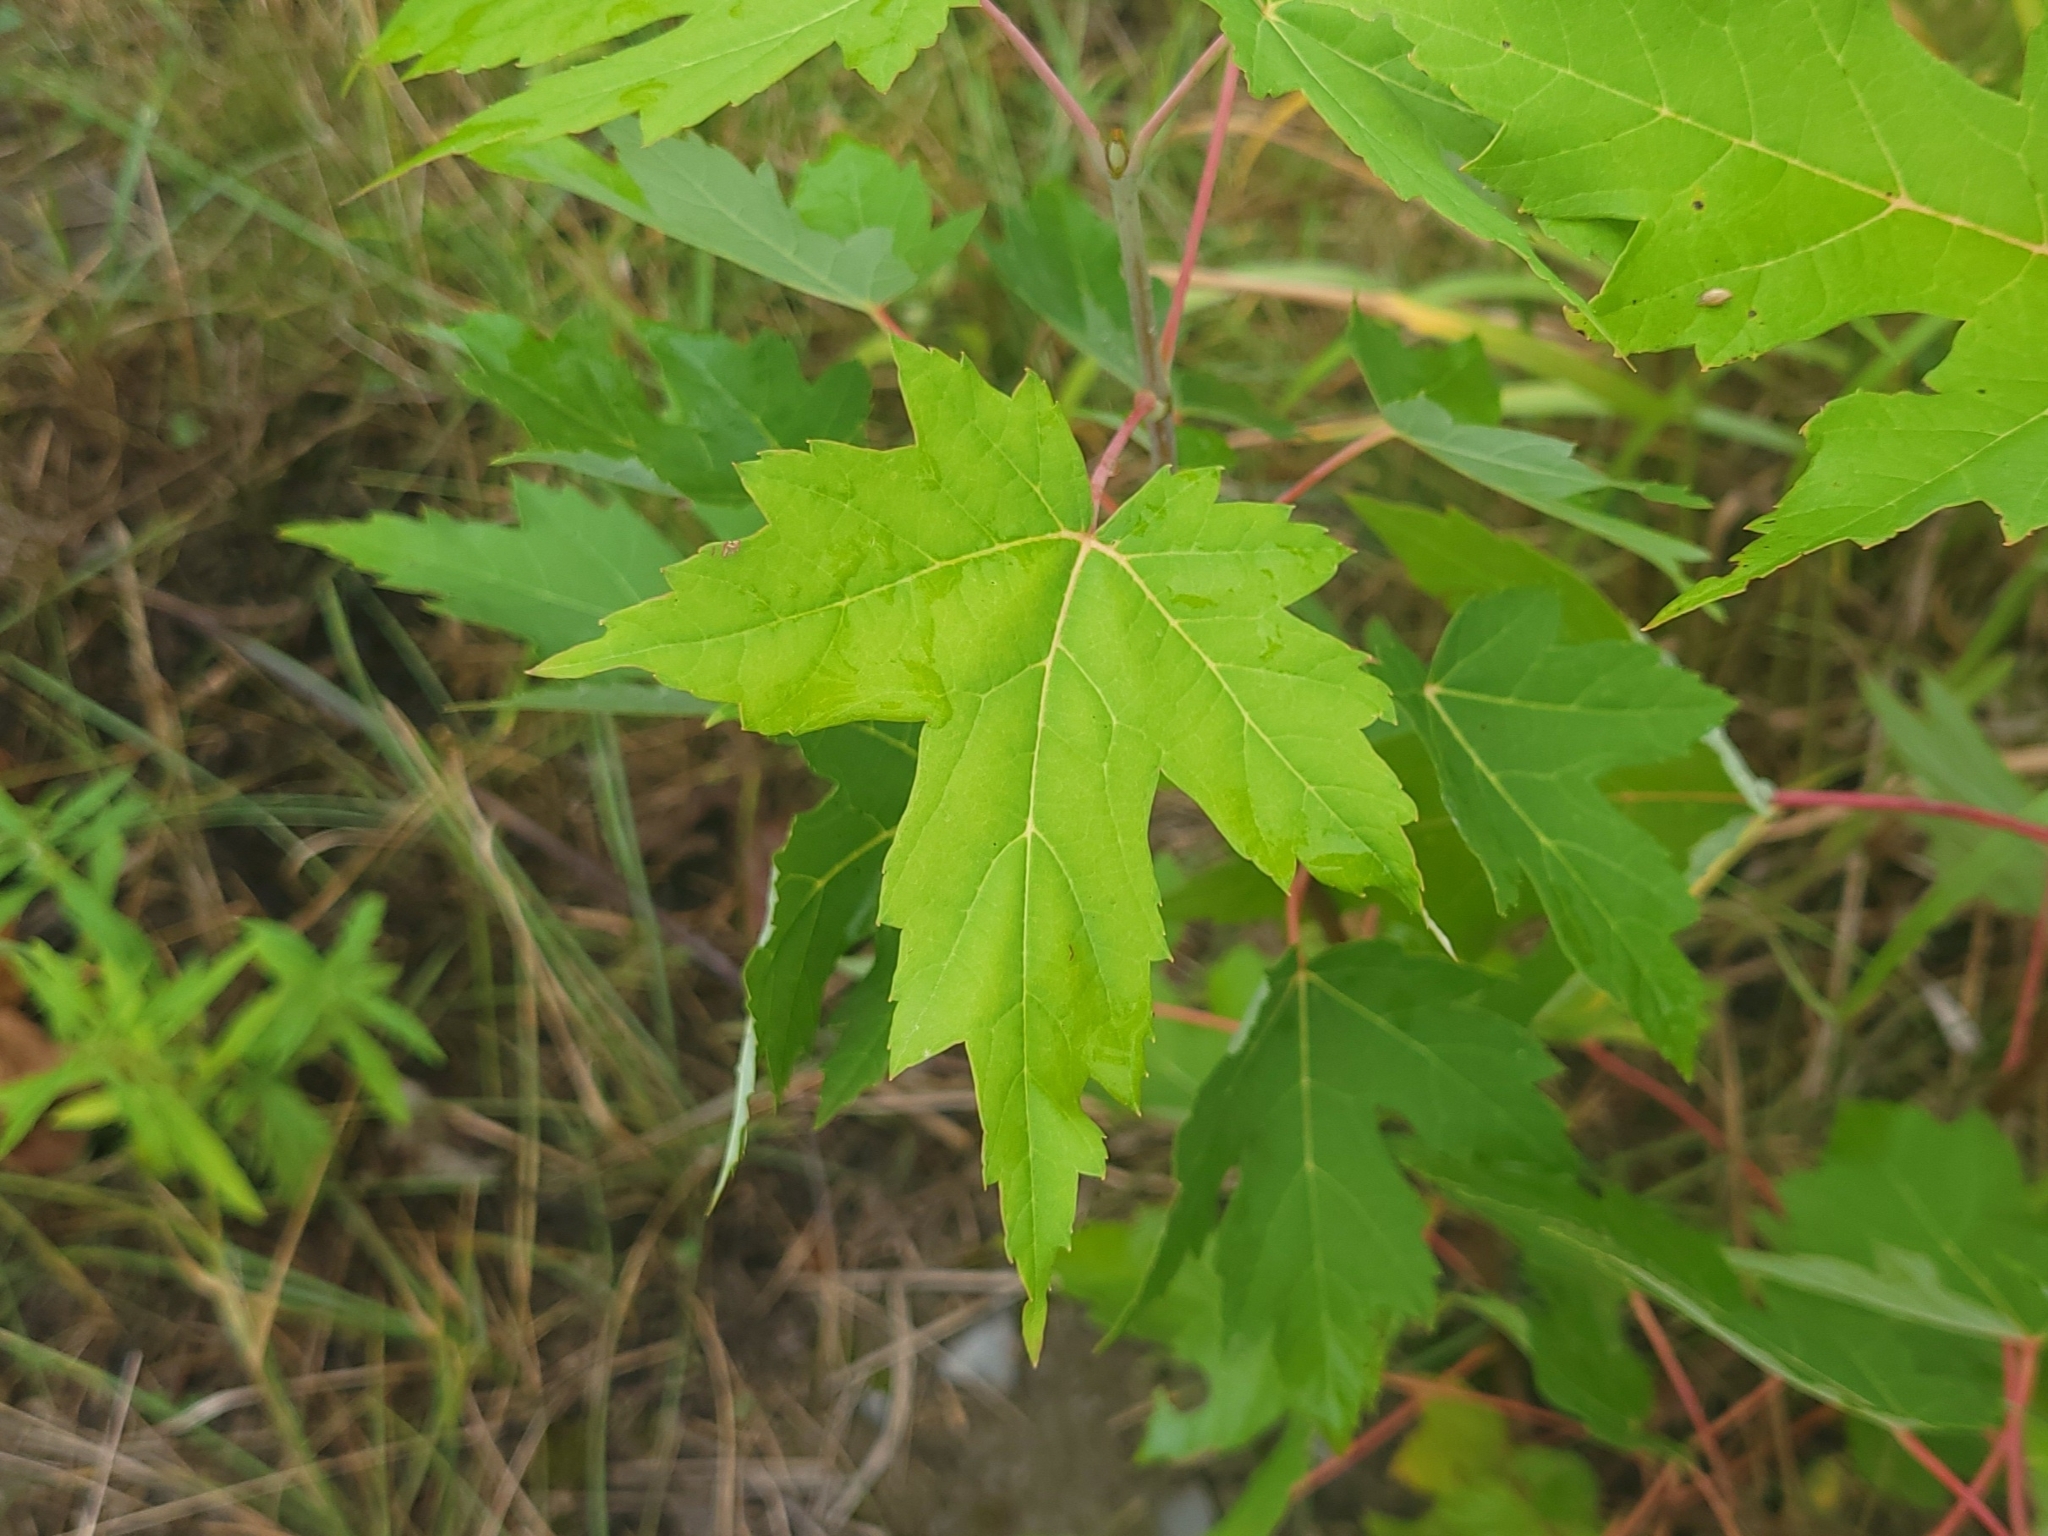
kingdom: Plantae
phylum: Tracheophyta
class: Magnoliopsida
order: Sapindales
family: Sapindaceae
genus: Acer
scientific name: Acer saccharinum
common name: Silver maple
